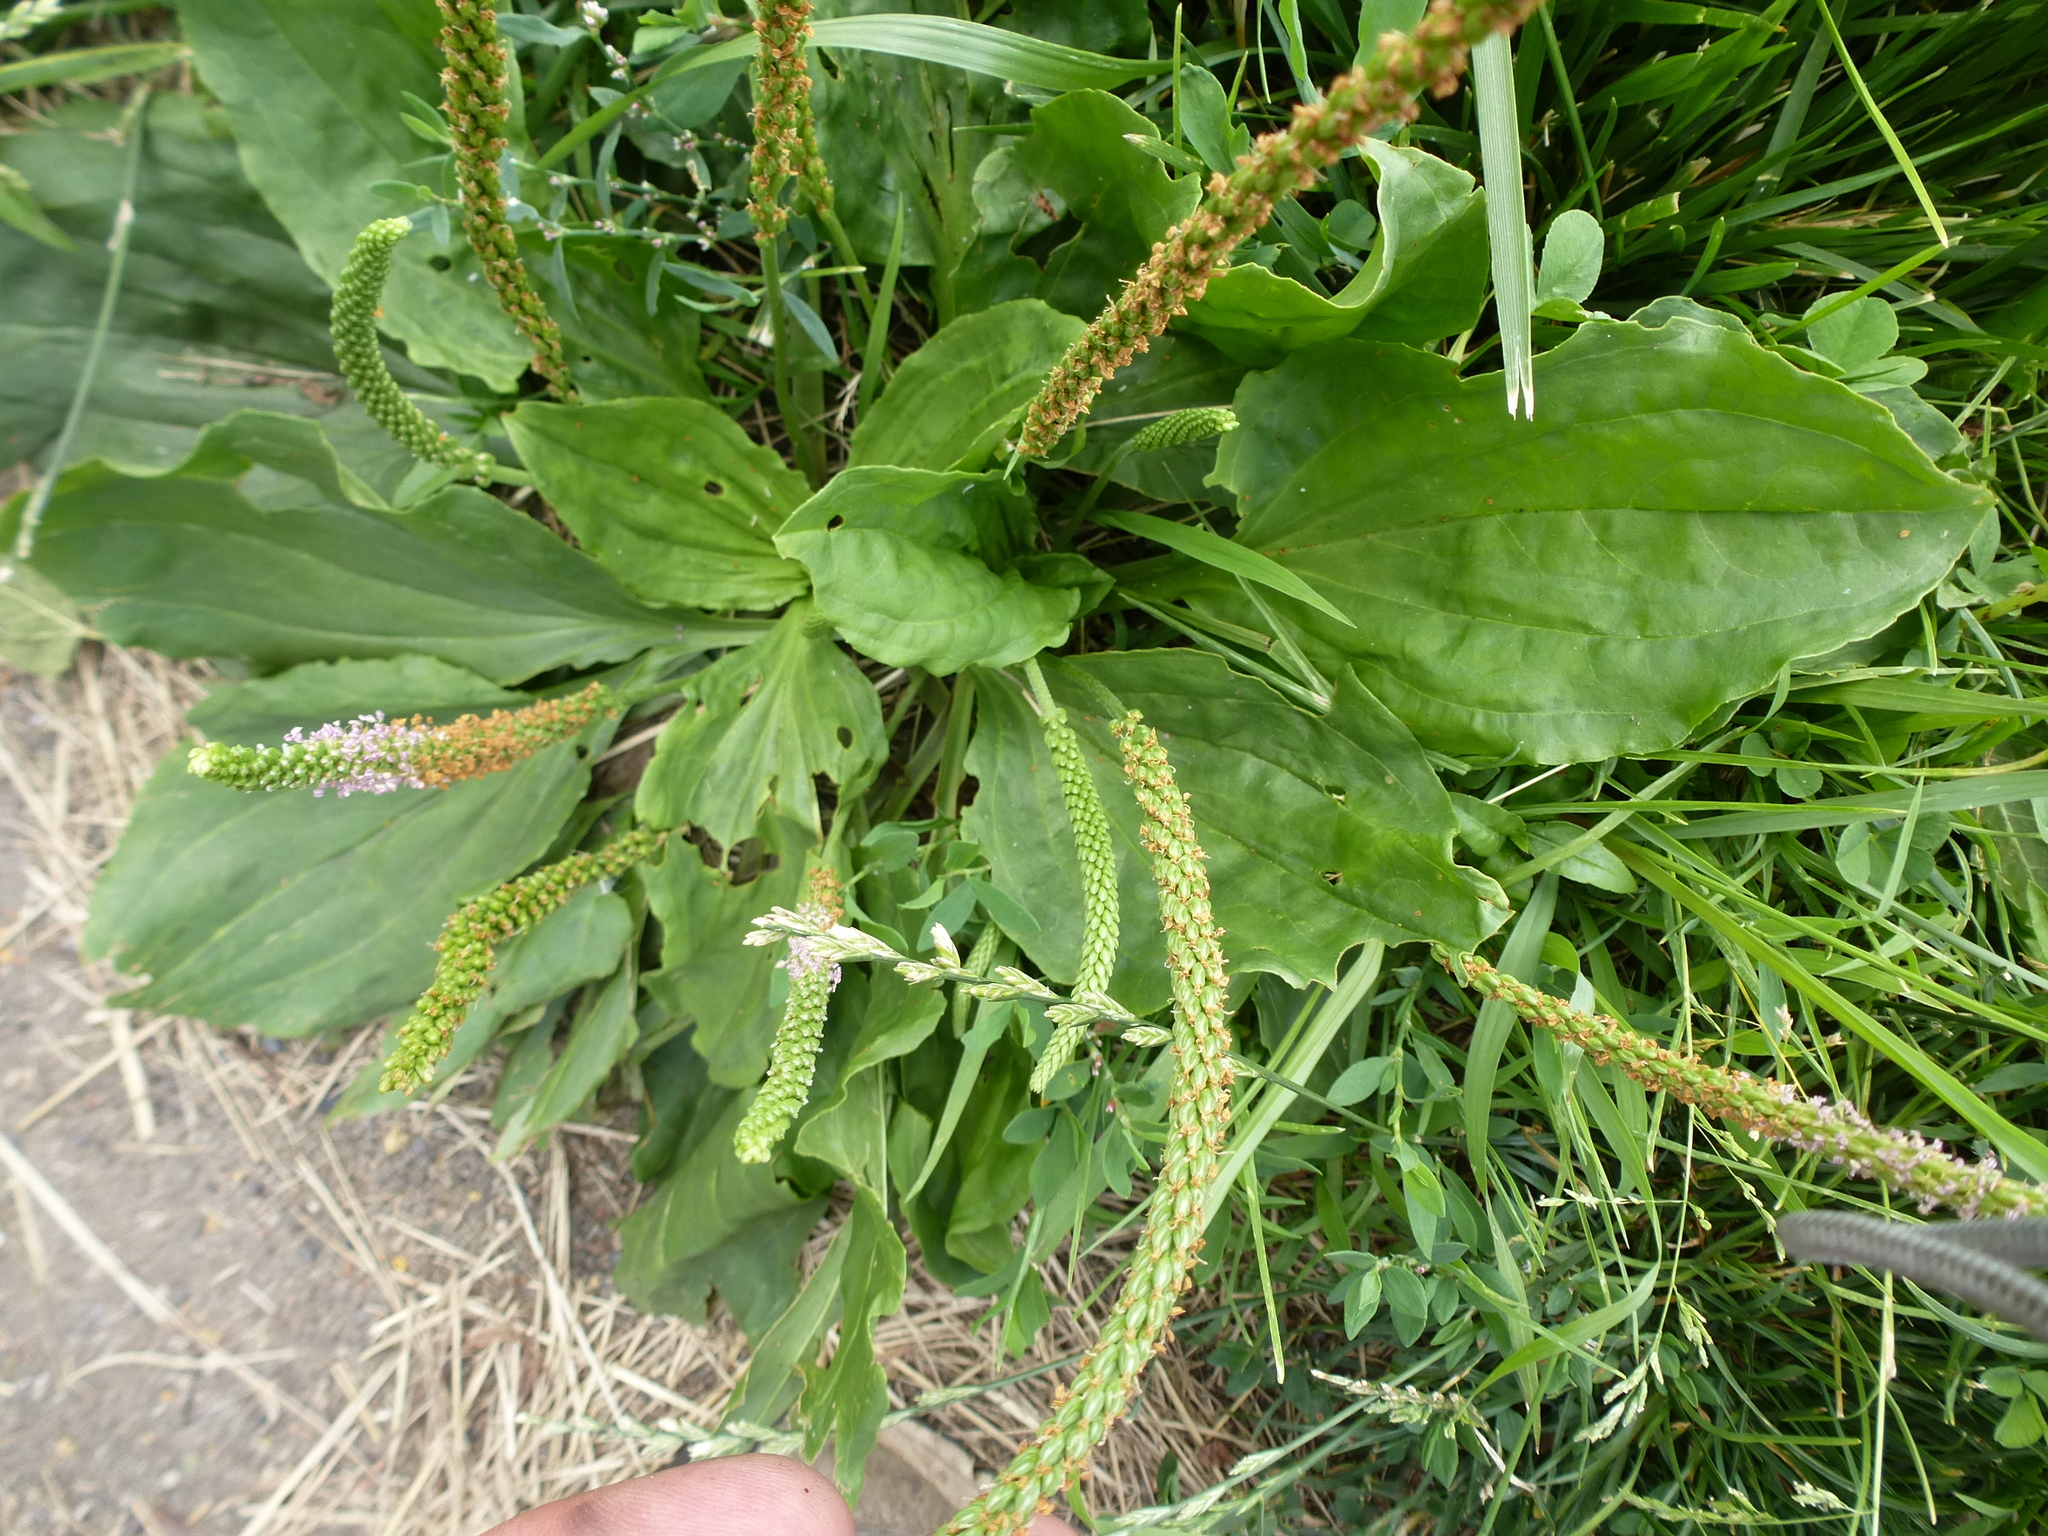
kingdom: Plantae
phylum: Tracheophyta
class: Magnoliopsida
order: Lamiales
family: Plantaginaceae
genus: Plantago
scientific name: Plantago major
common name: Common plantain
